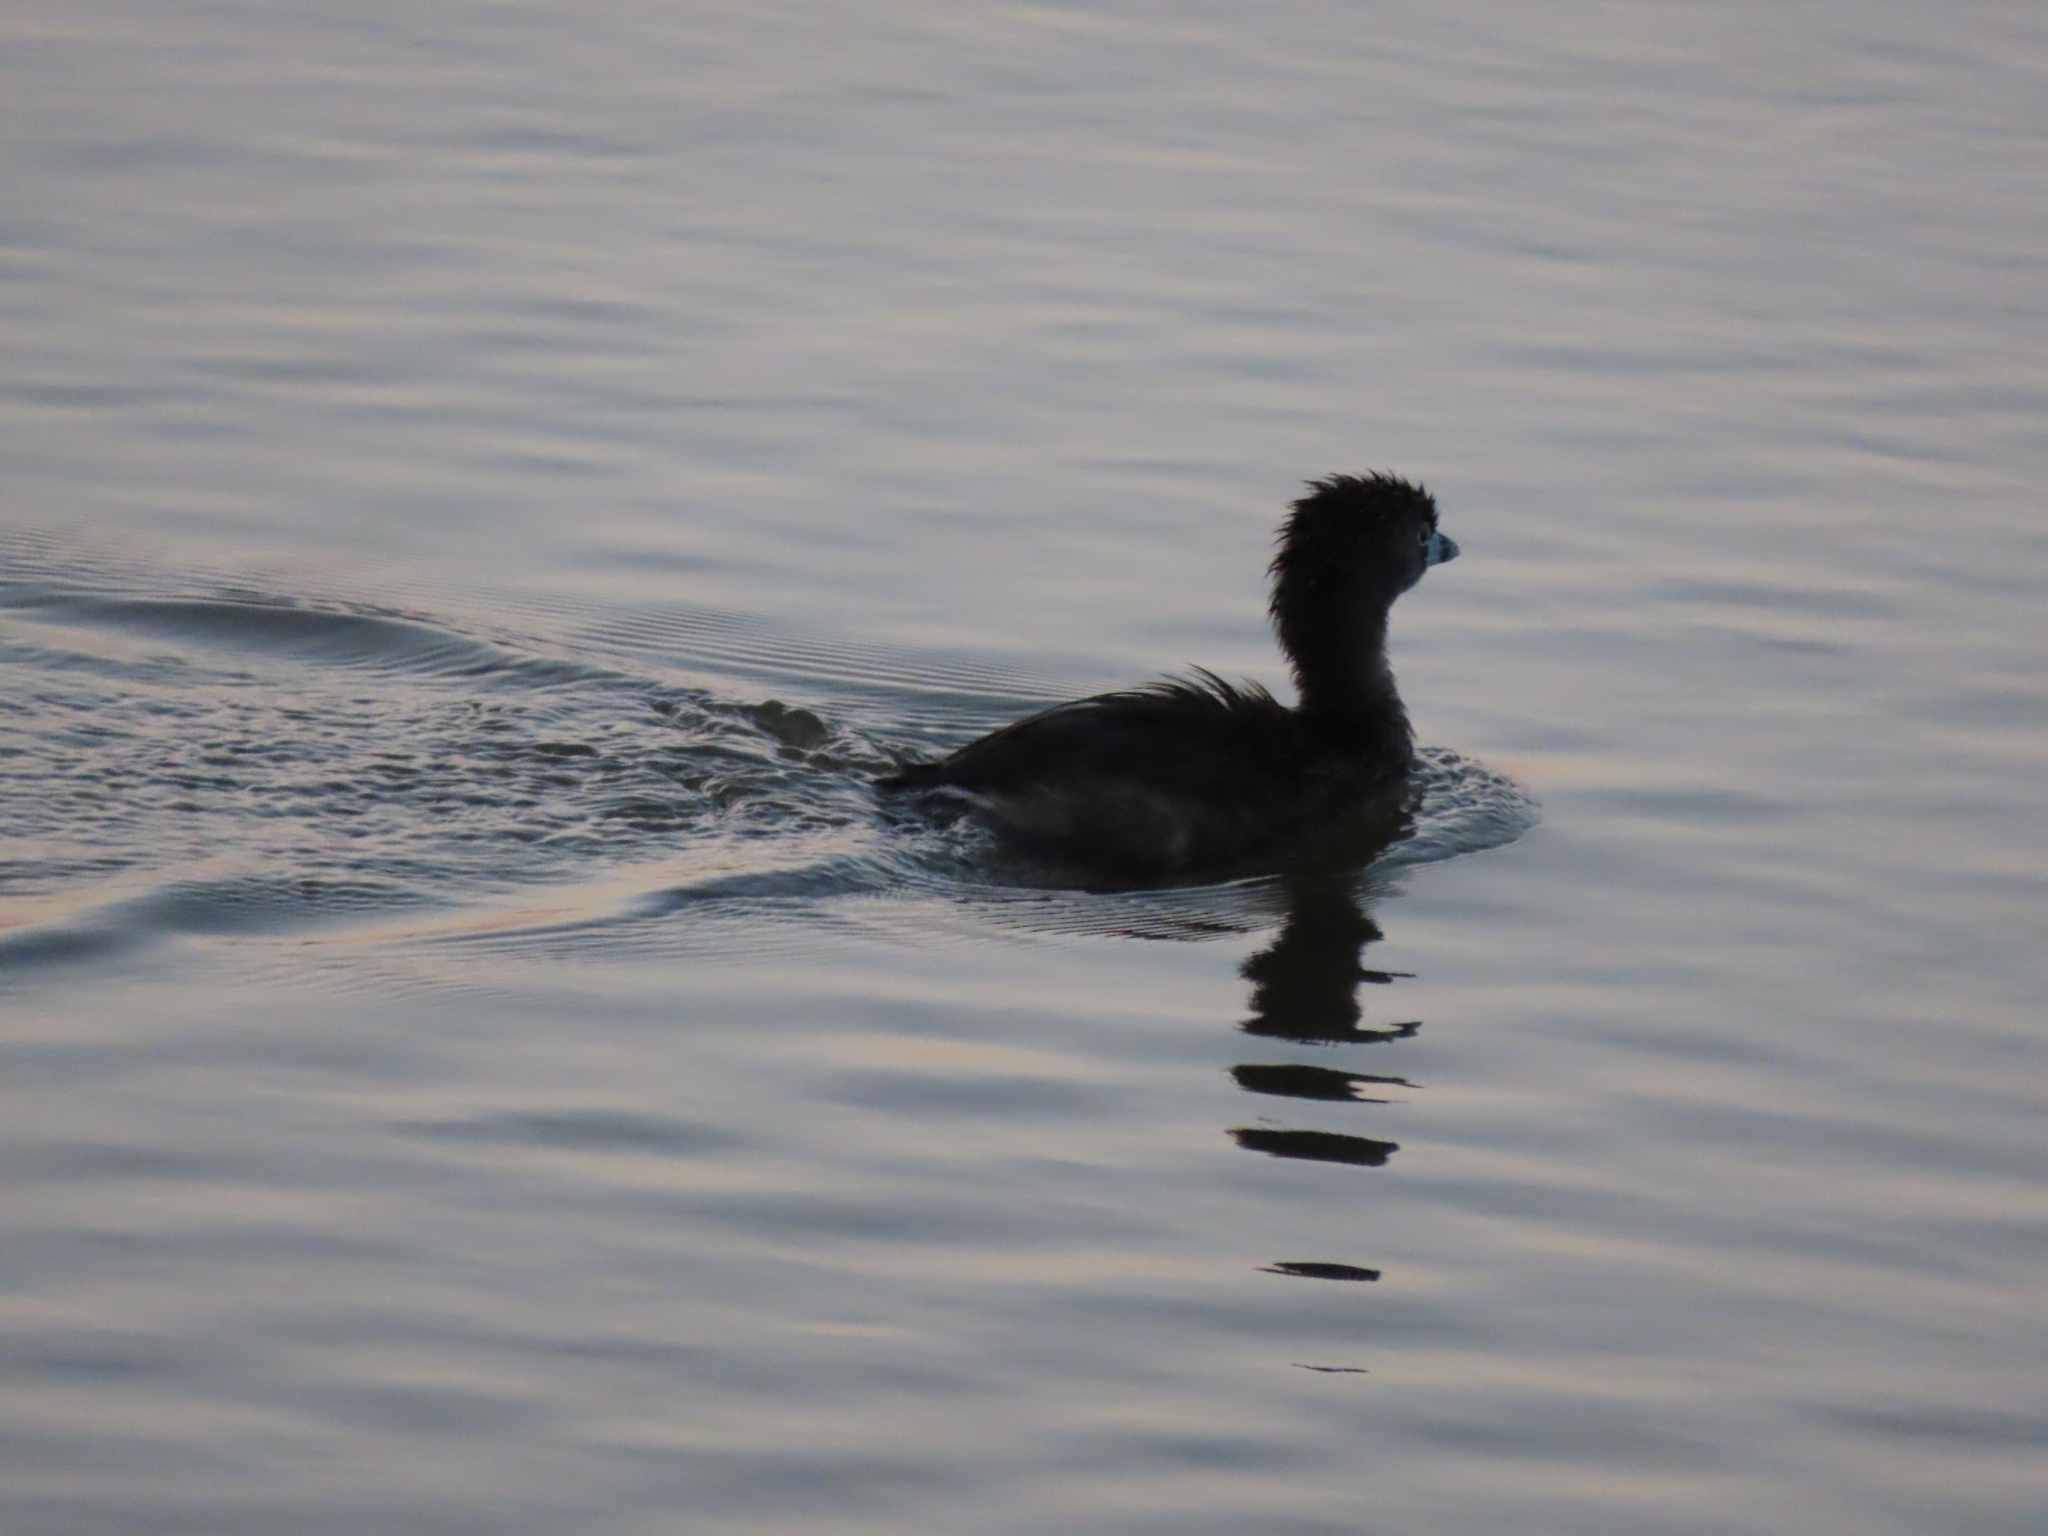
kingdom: Animalia
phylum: Chordata
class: Aves
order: Podicipediformes
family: Podicipedidae
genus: Podilymbus
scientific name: Podilymbus podiceps
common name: Pied-billed grebe
